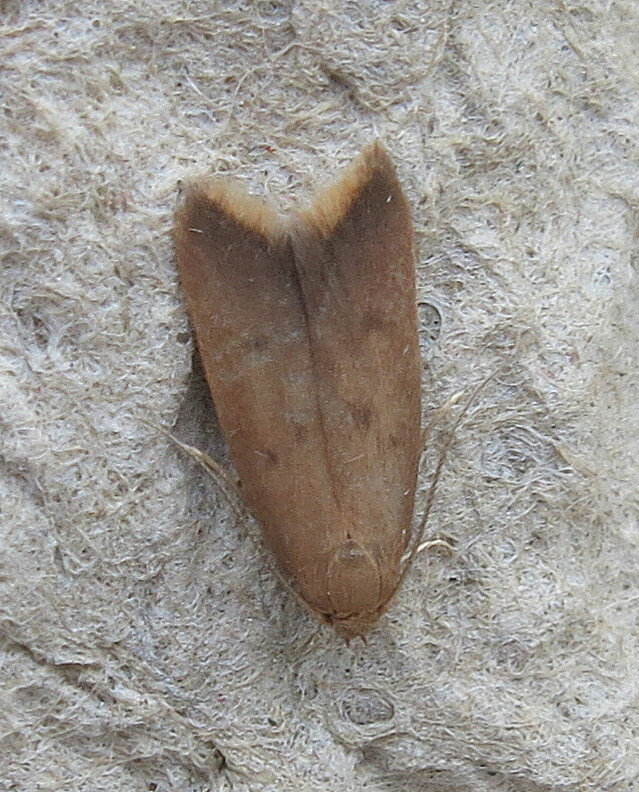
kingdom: Animalia
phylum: Arthropoda
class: Insecta
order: Lepidoptera
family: Oecophoridae
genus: Tachystola
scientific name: Tachystola acroxantha
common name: Ruddy streak
